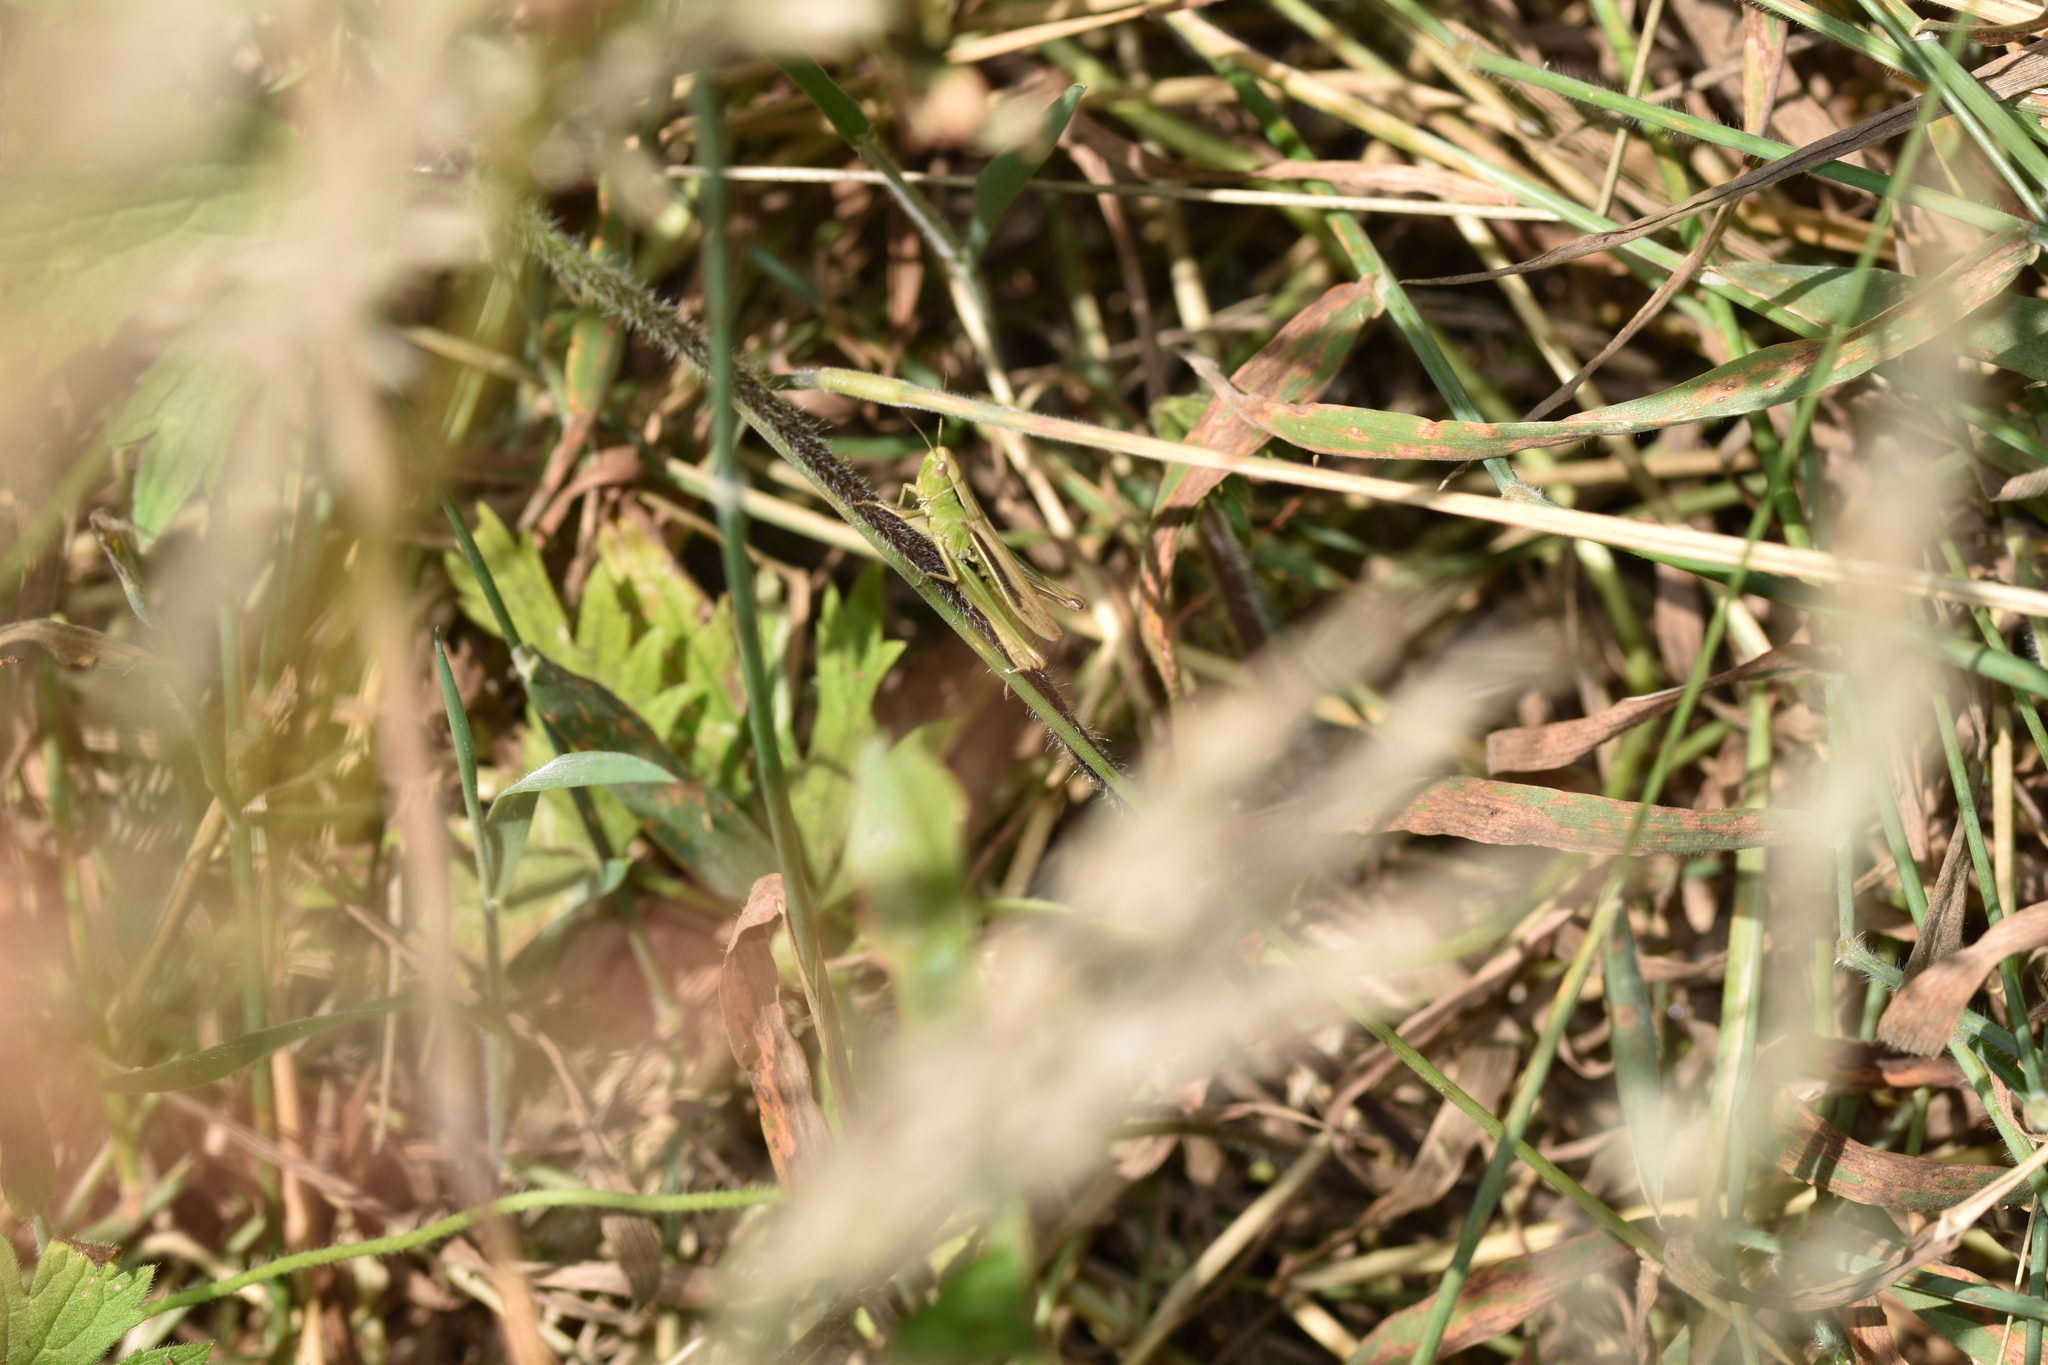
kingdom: Animalia
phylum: Arthropoda
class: Insecta
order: Orthoptera
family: Acrididae
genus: Chorthippus
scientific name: Chorthippus albomarginatus
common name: Lesser marsh grasshopper
